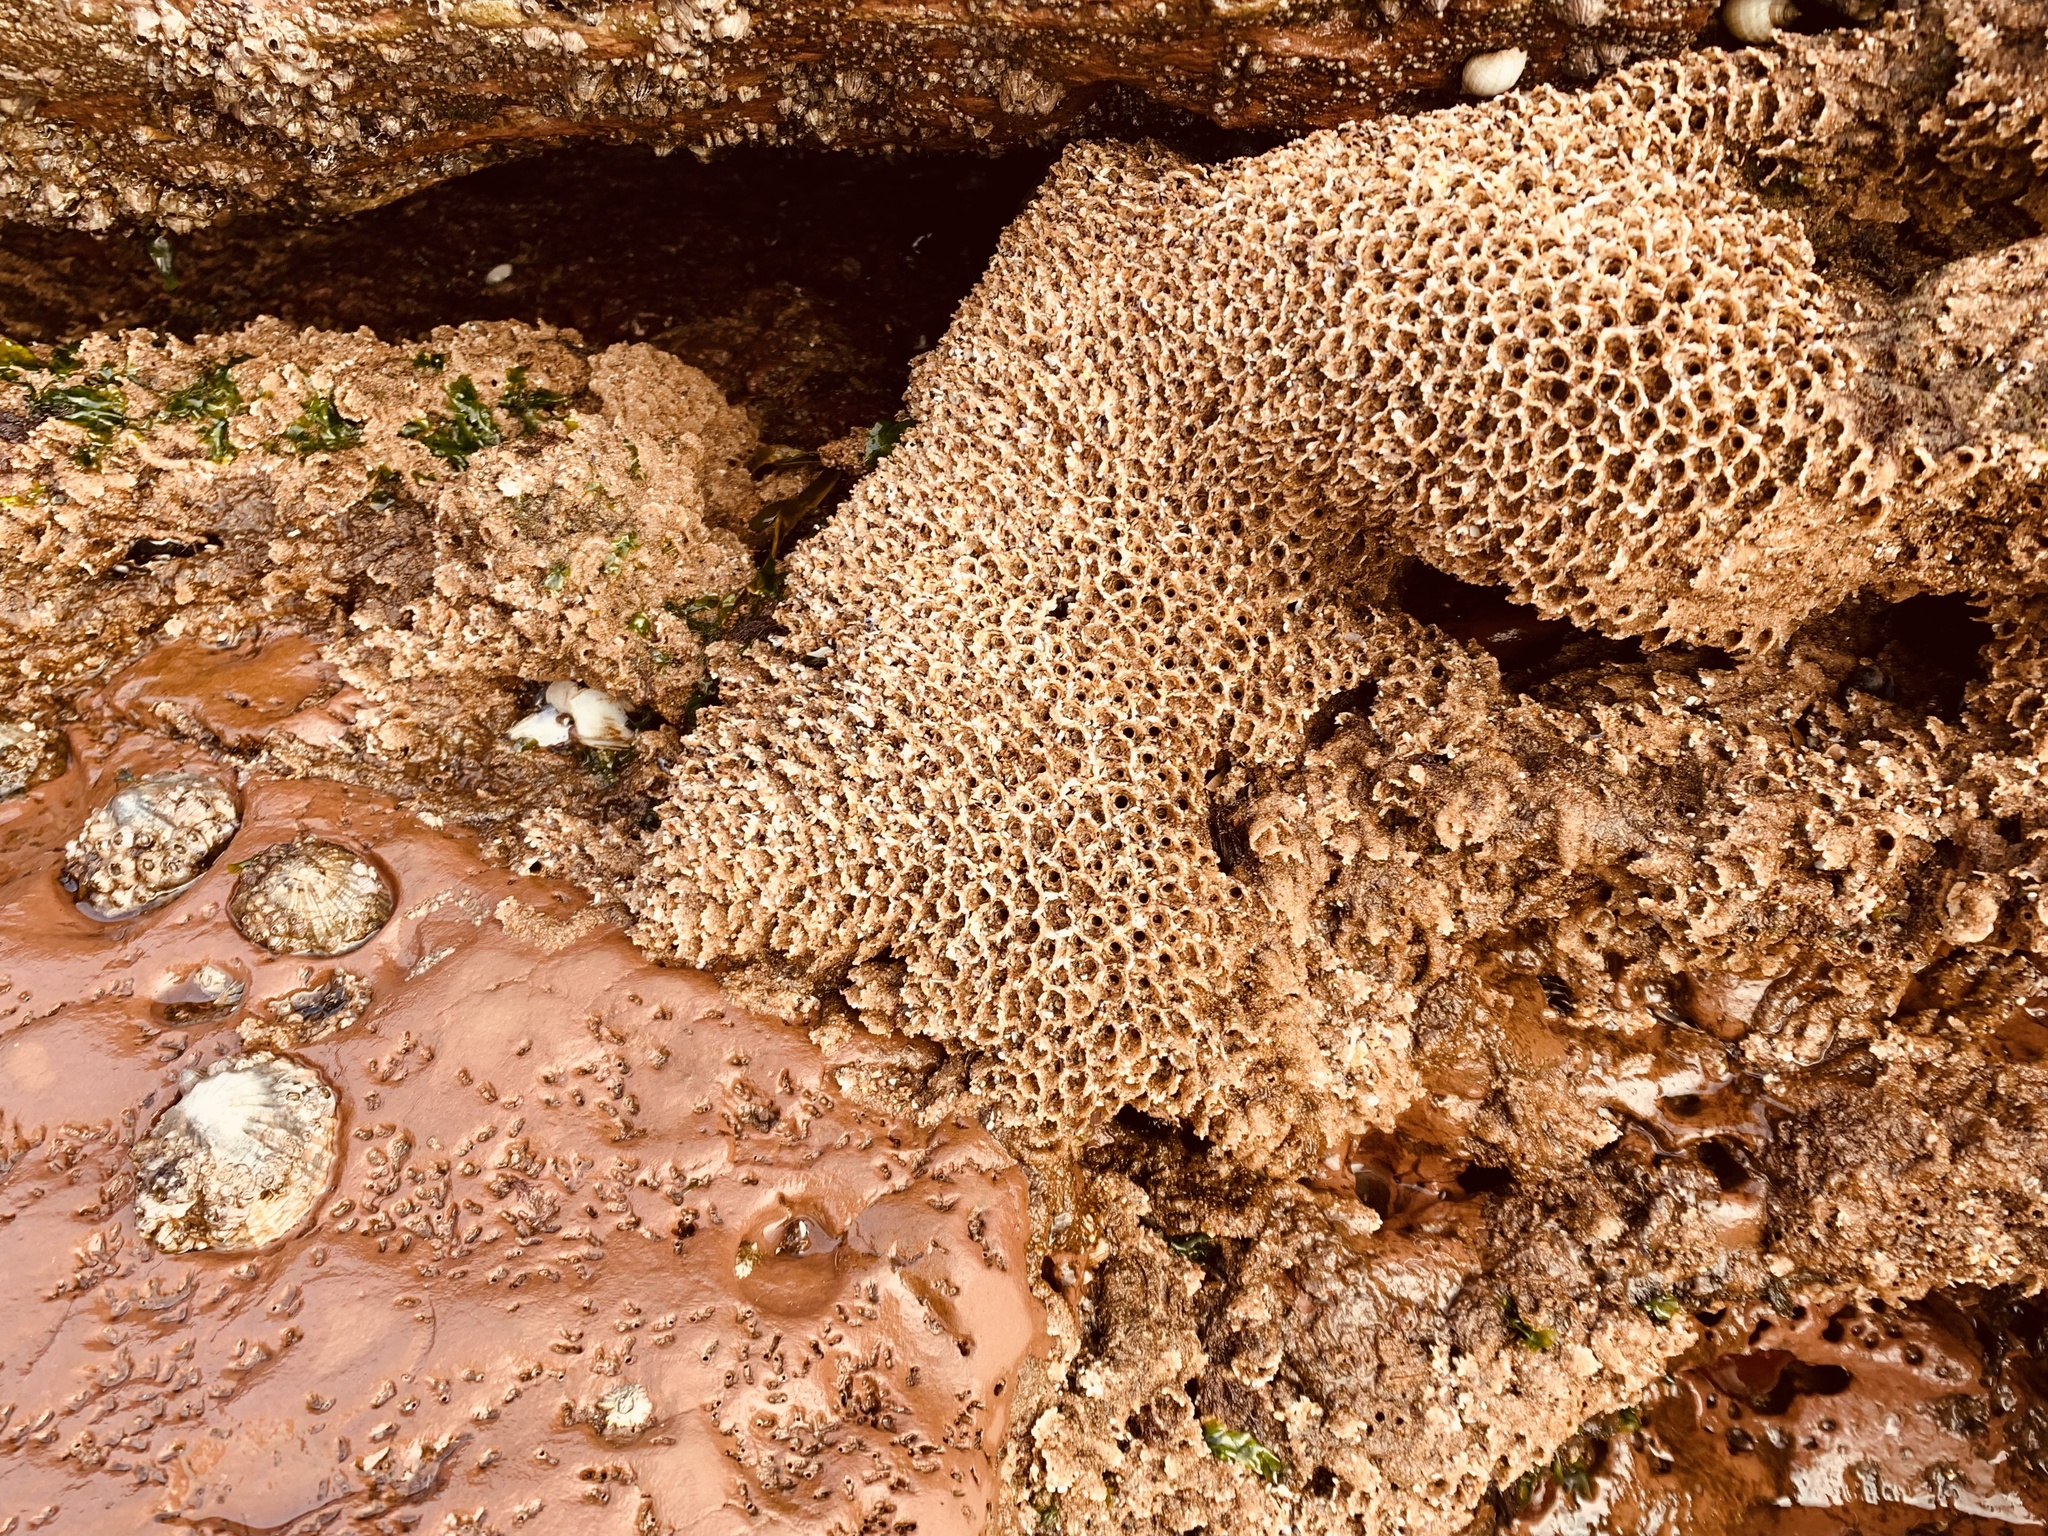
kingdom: Animalia
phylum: Annelida
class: Polychaeta
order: Sabellida
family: Sabellariidae
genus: Sabellaria
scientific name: Sabellaria alveolata
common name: Honeycomb worm
